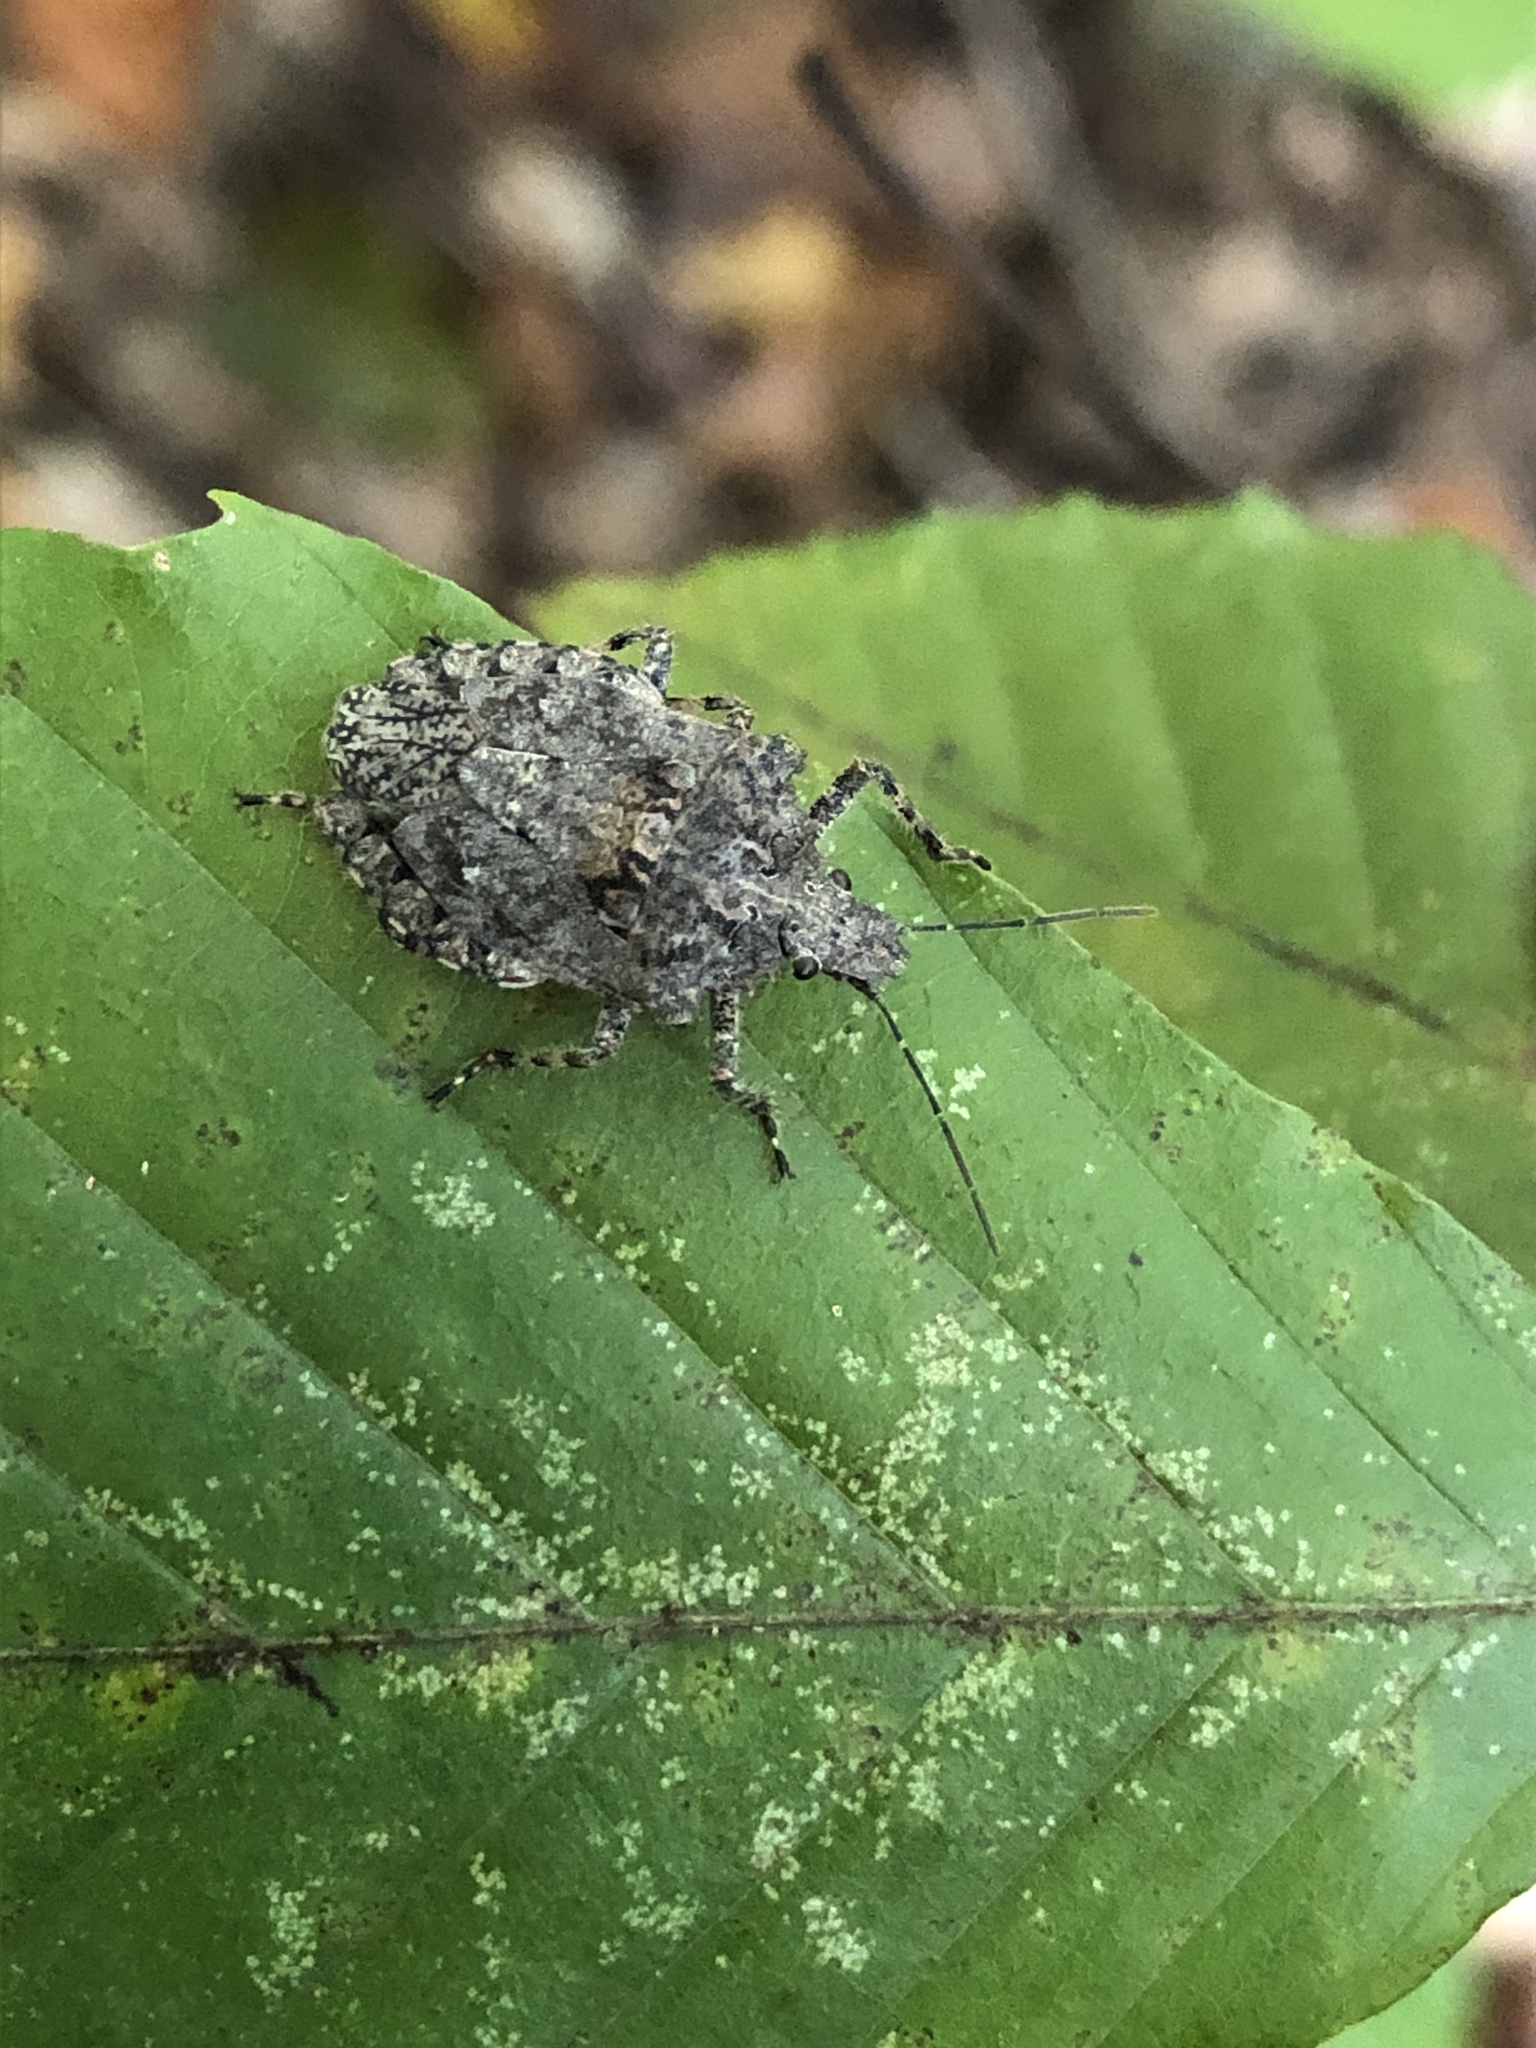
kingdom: Animalia
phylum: Arthropoda
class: Insecta
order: Hemiptera
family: Pentatomidae
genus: Brochymena
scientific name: Brochymena arborea
